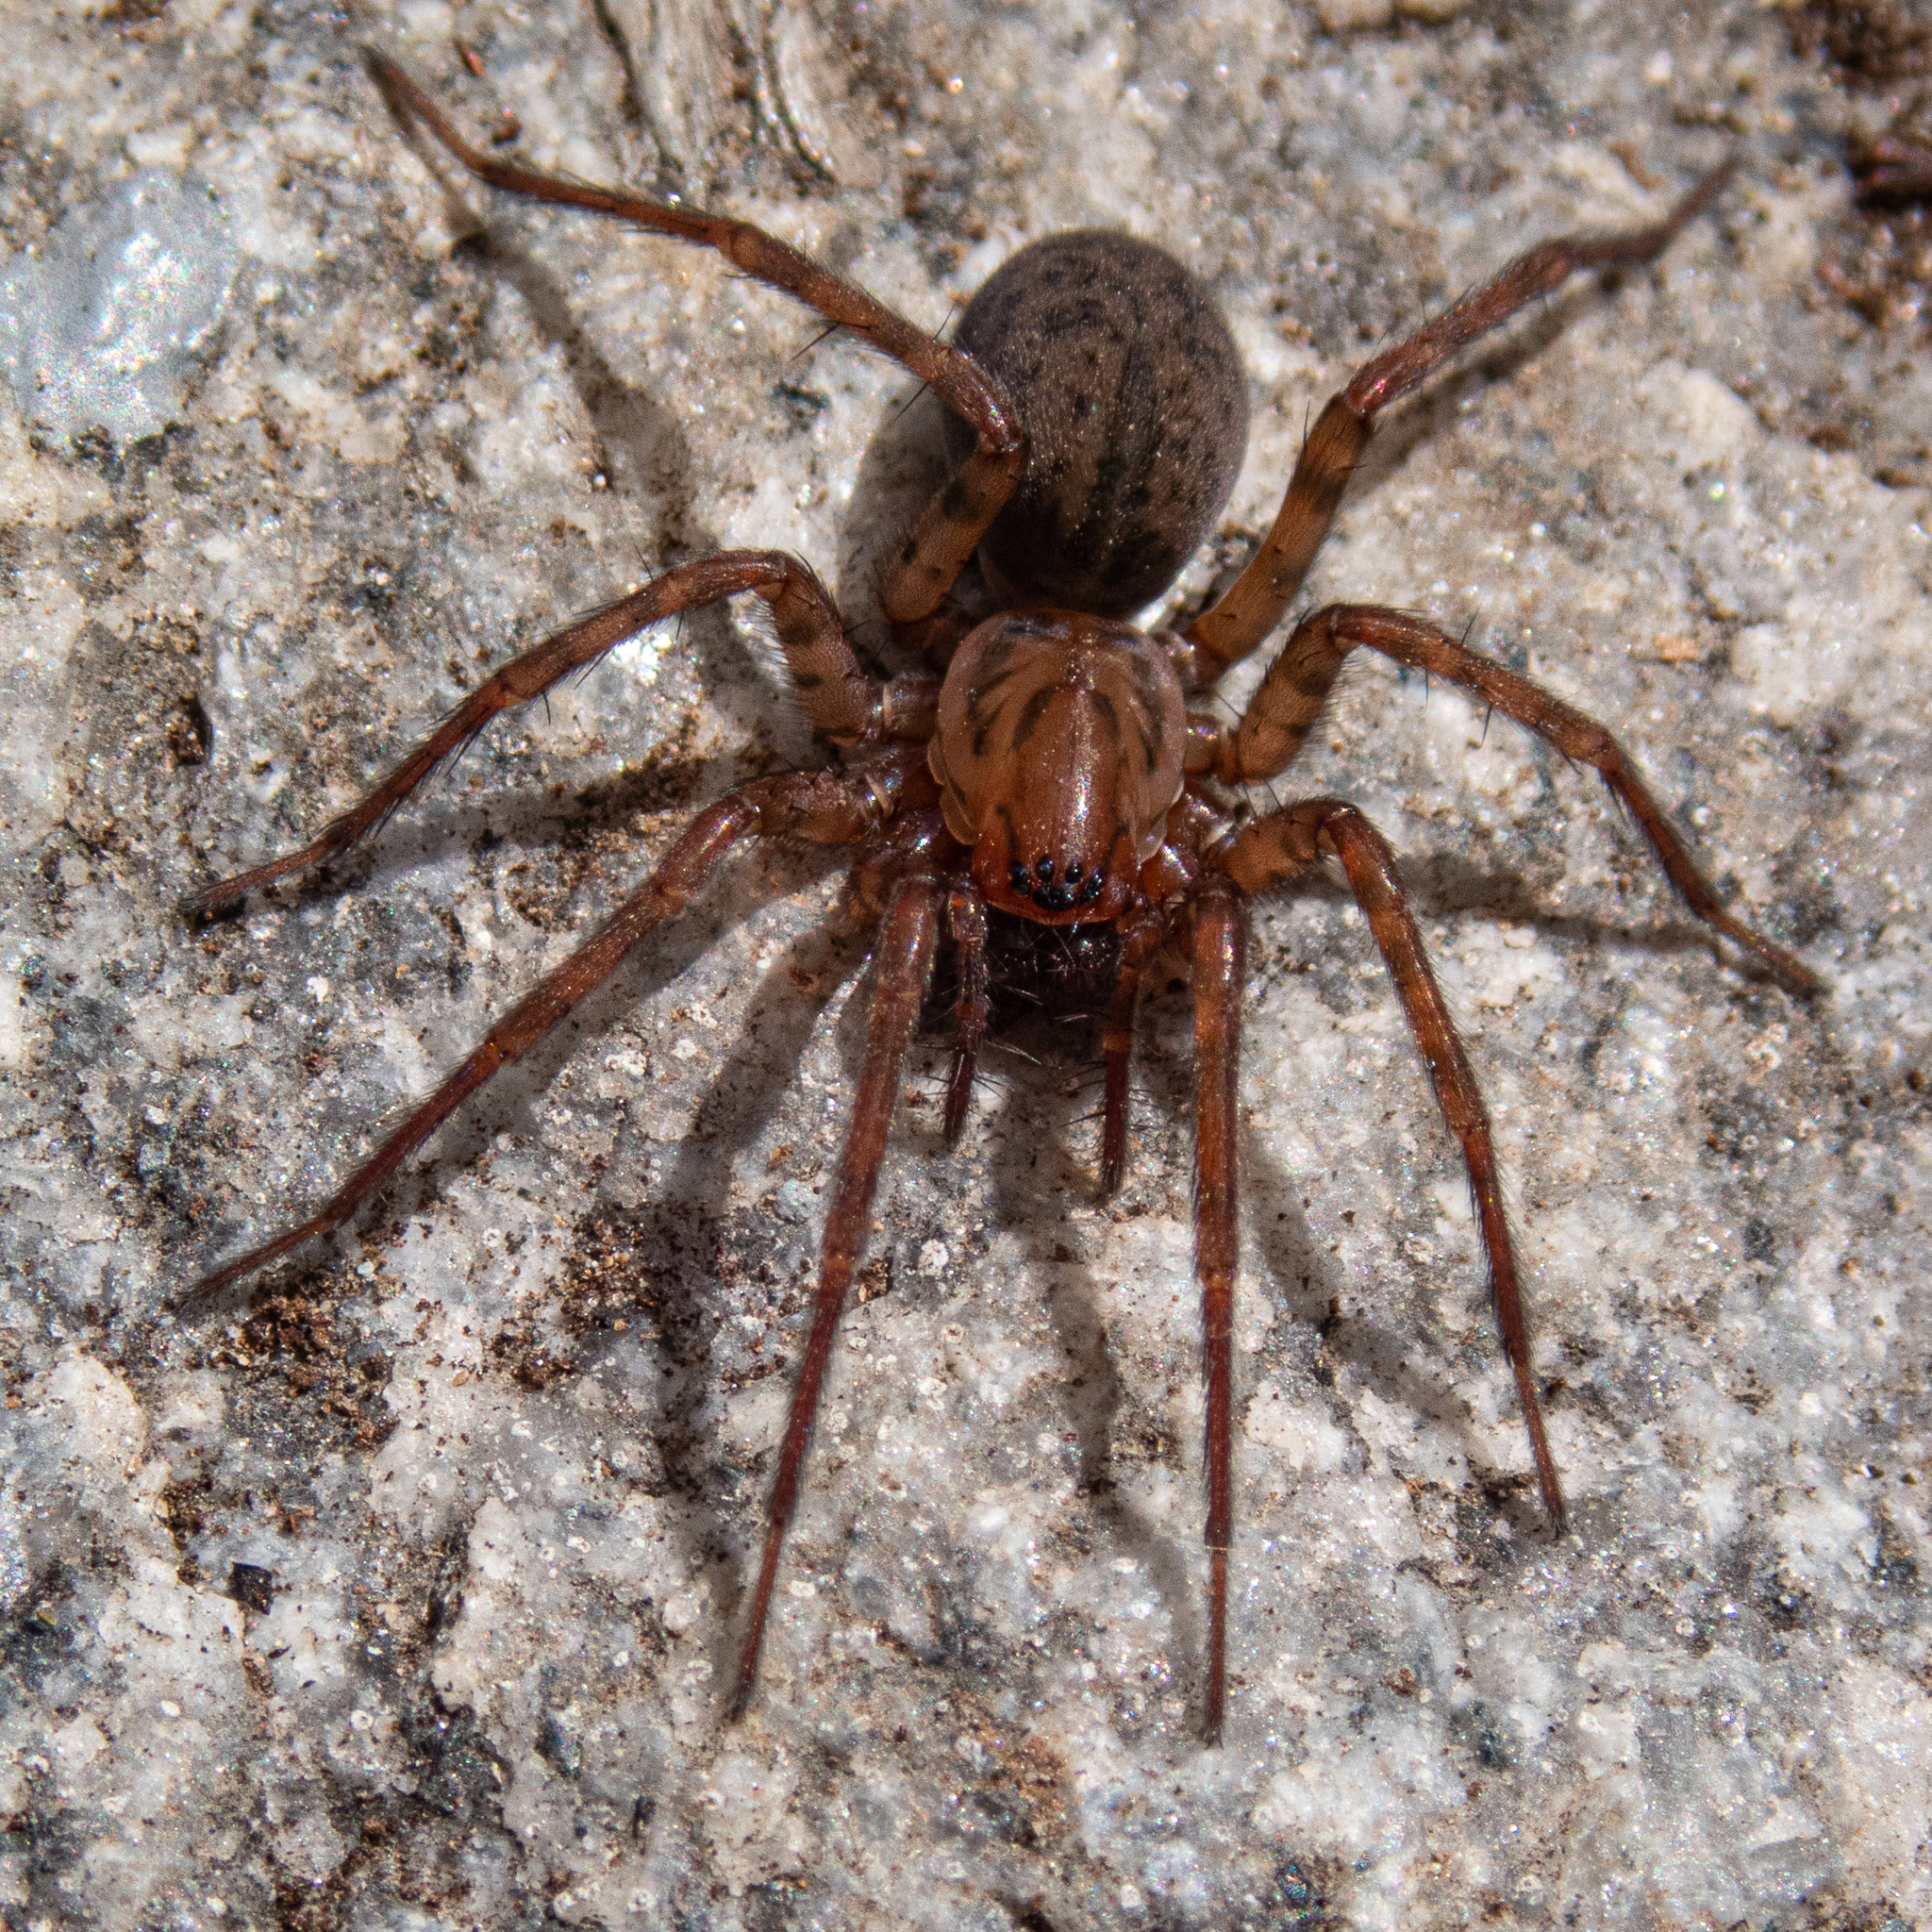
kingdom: Animalia
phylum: Arthropoda
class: Arachnida
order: Araneae
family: Agelenidae
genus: Coras
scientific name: Coras
